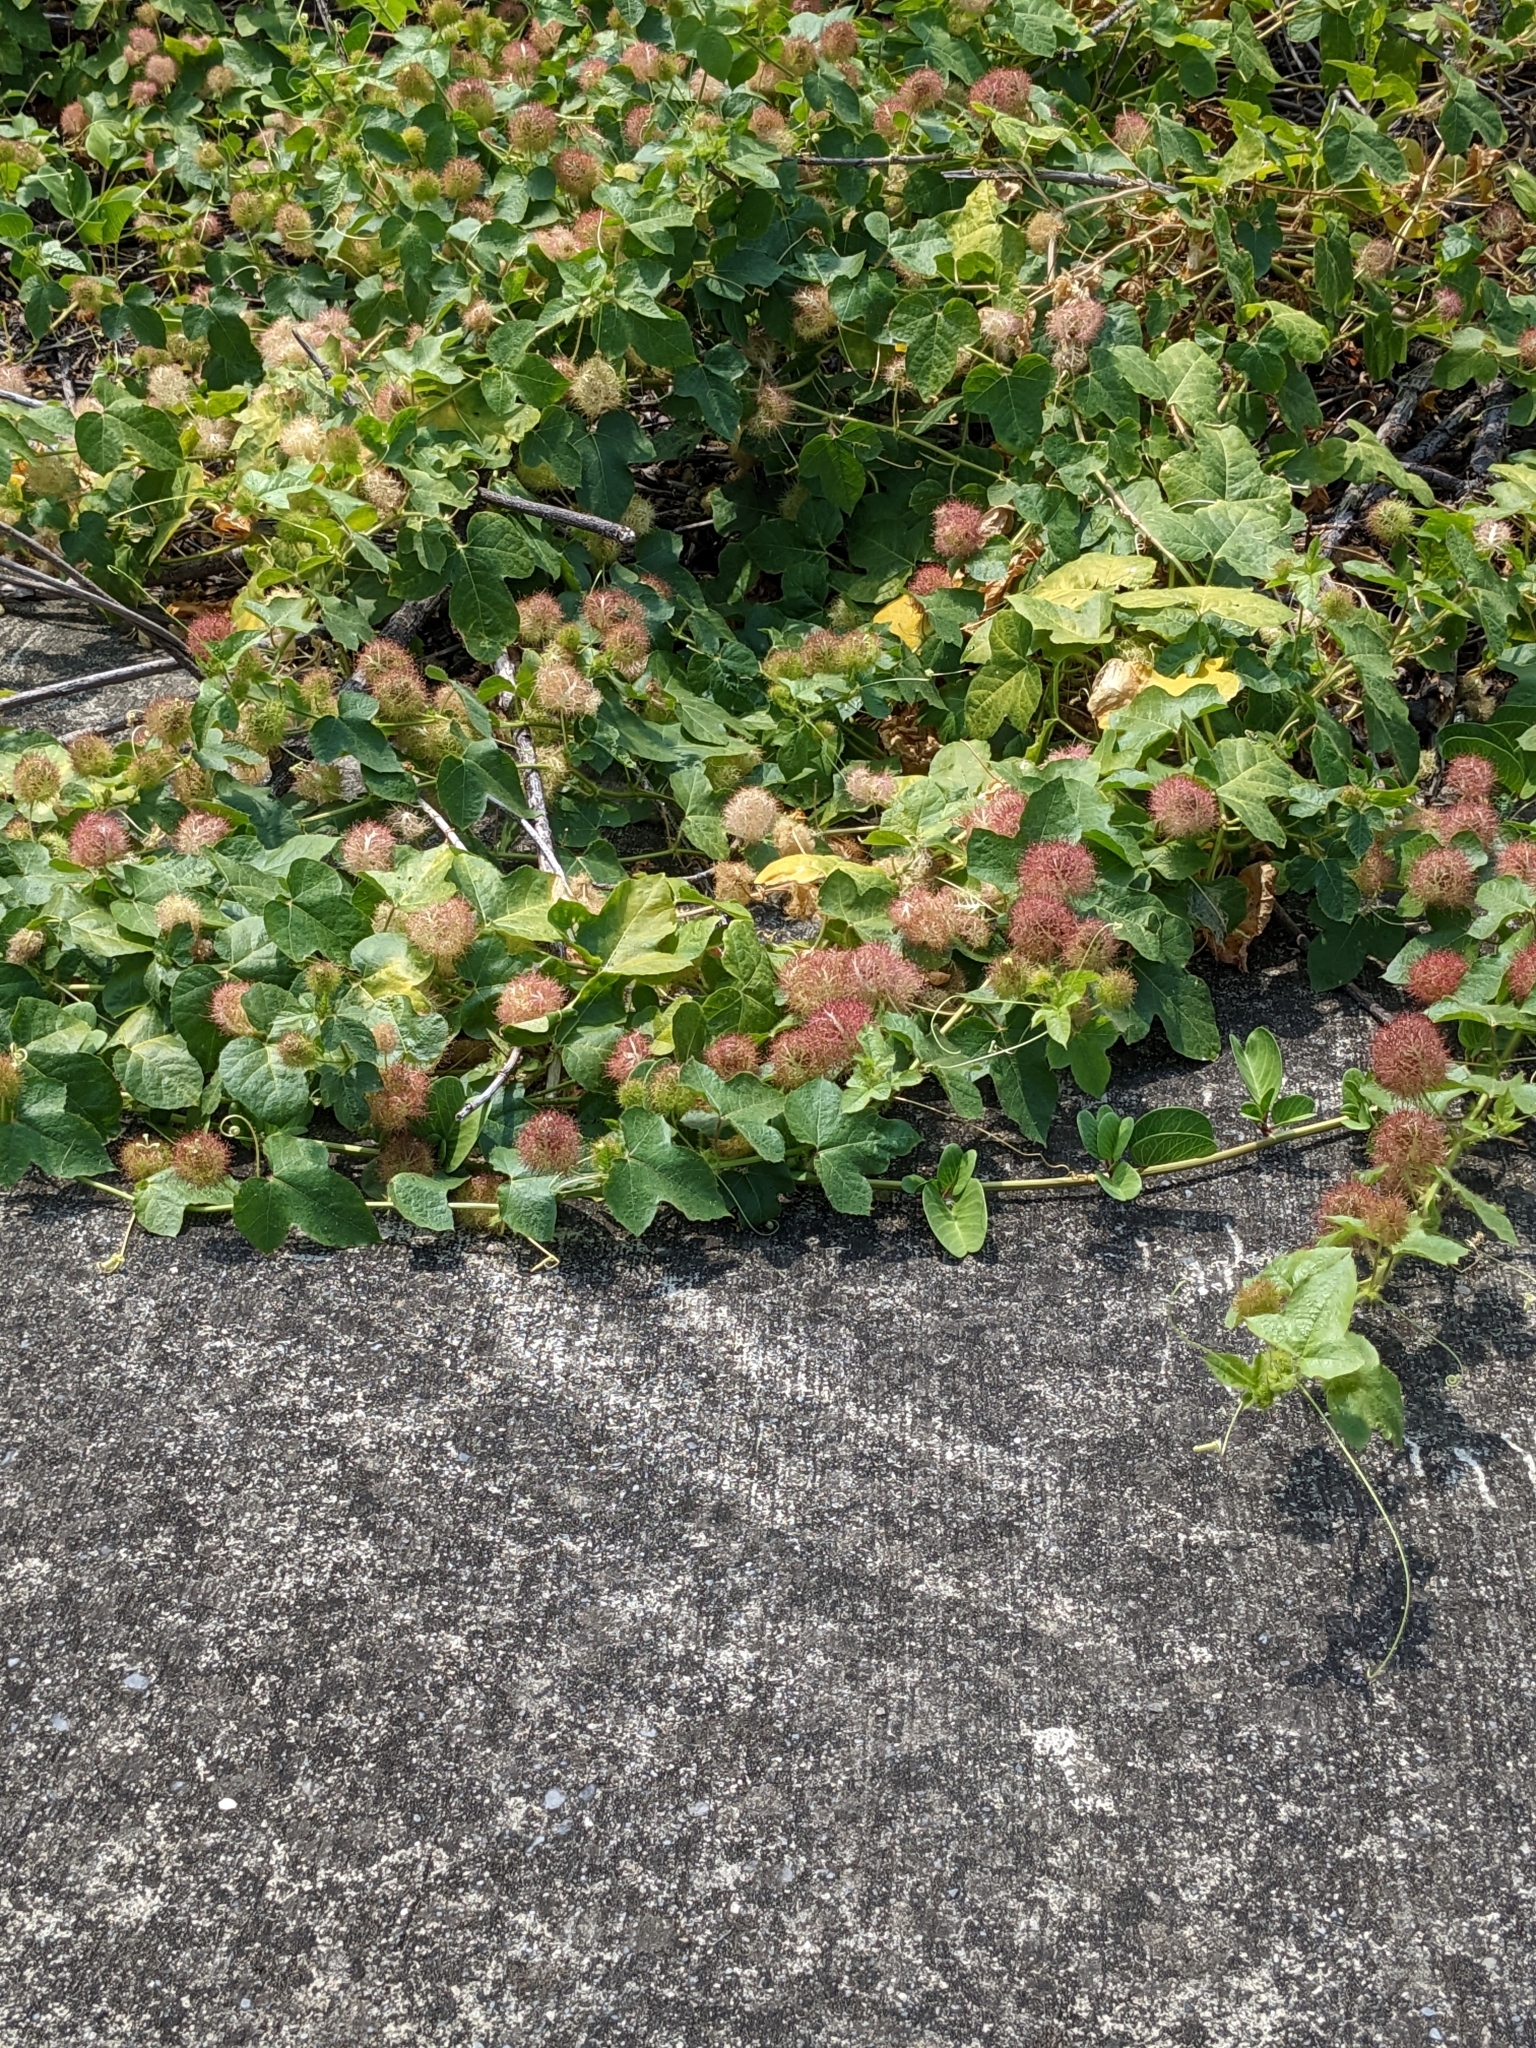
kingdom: Plantae
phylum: Tracheophyta
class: Magnoliopsida
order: Malpighiales
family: Passifloraceae
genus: Passiflora
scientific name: Passiflora vesicaria
